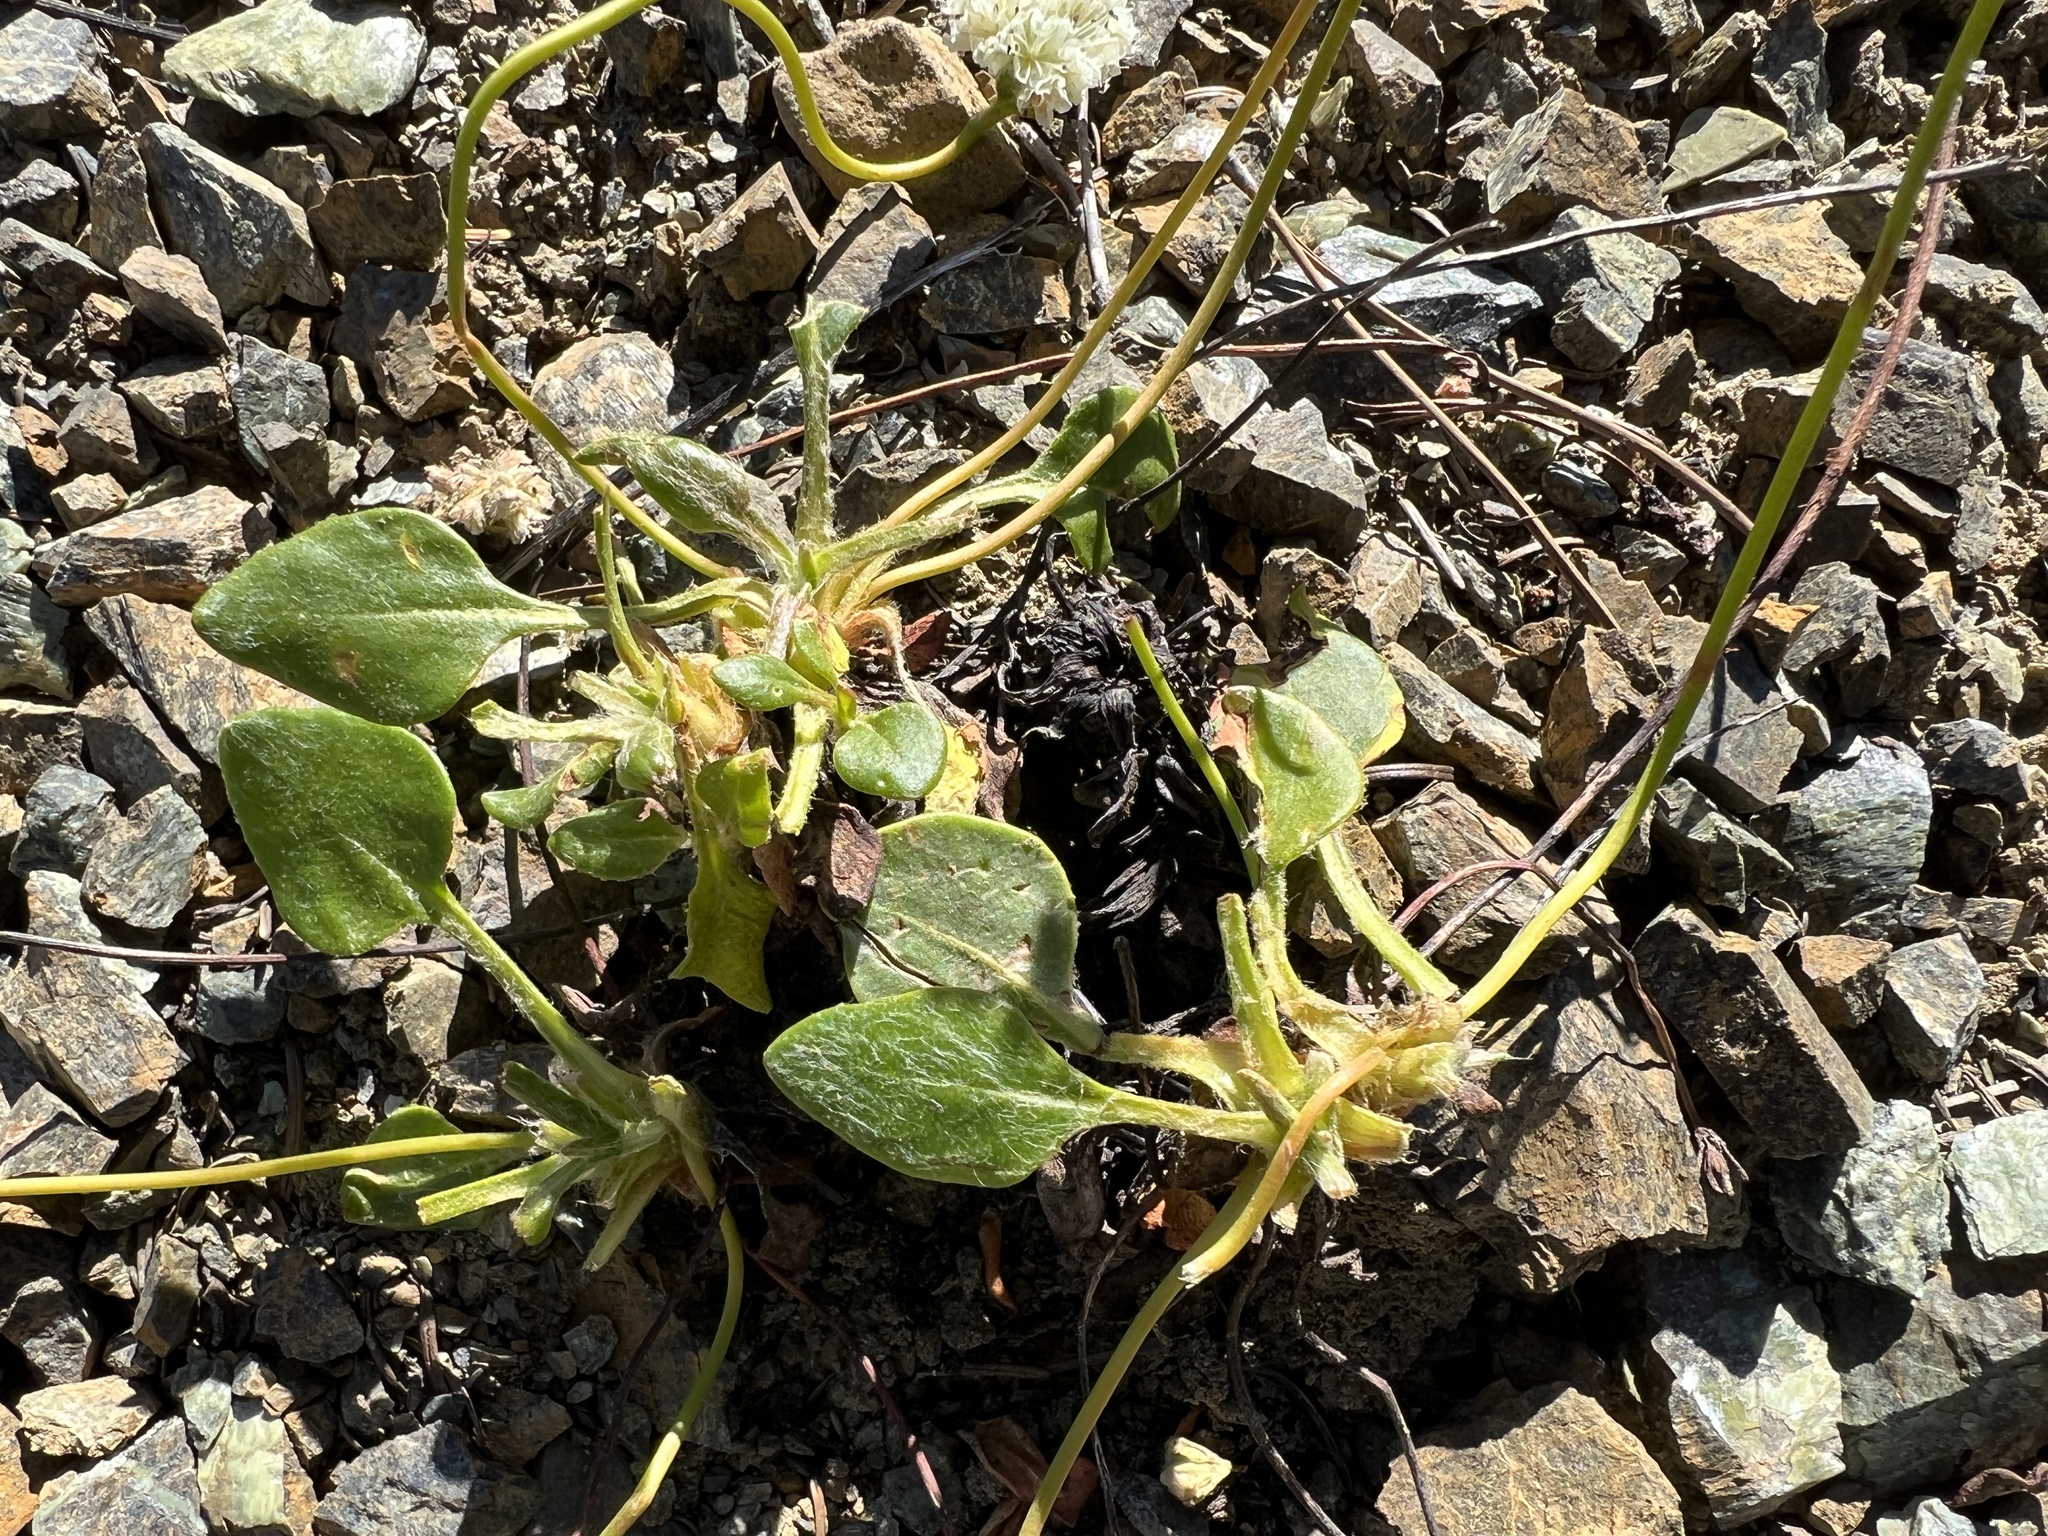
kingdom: Plantae
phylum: Tracheophyta
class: Magnoliopsida
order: Caryophyllales
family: Polygonaceae
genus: Eriogonum
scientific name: Eriogonum pyrolifolium
